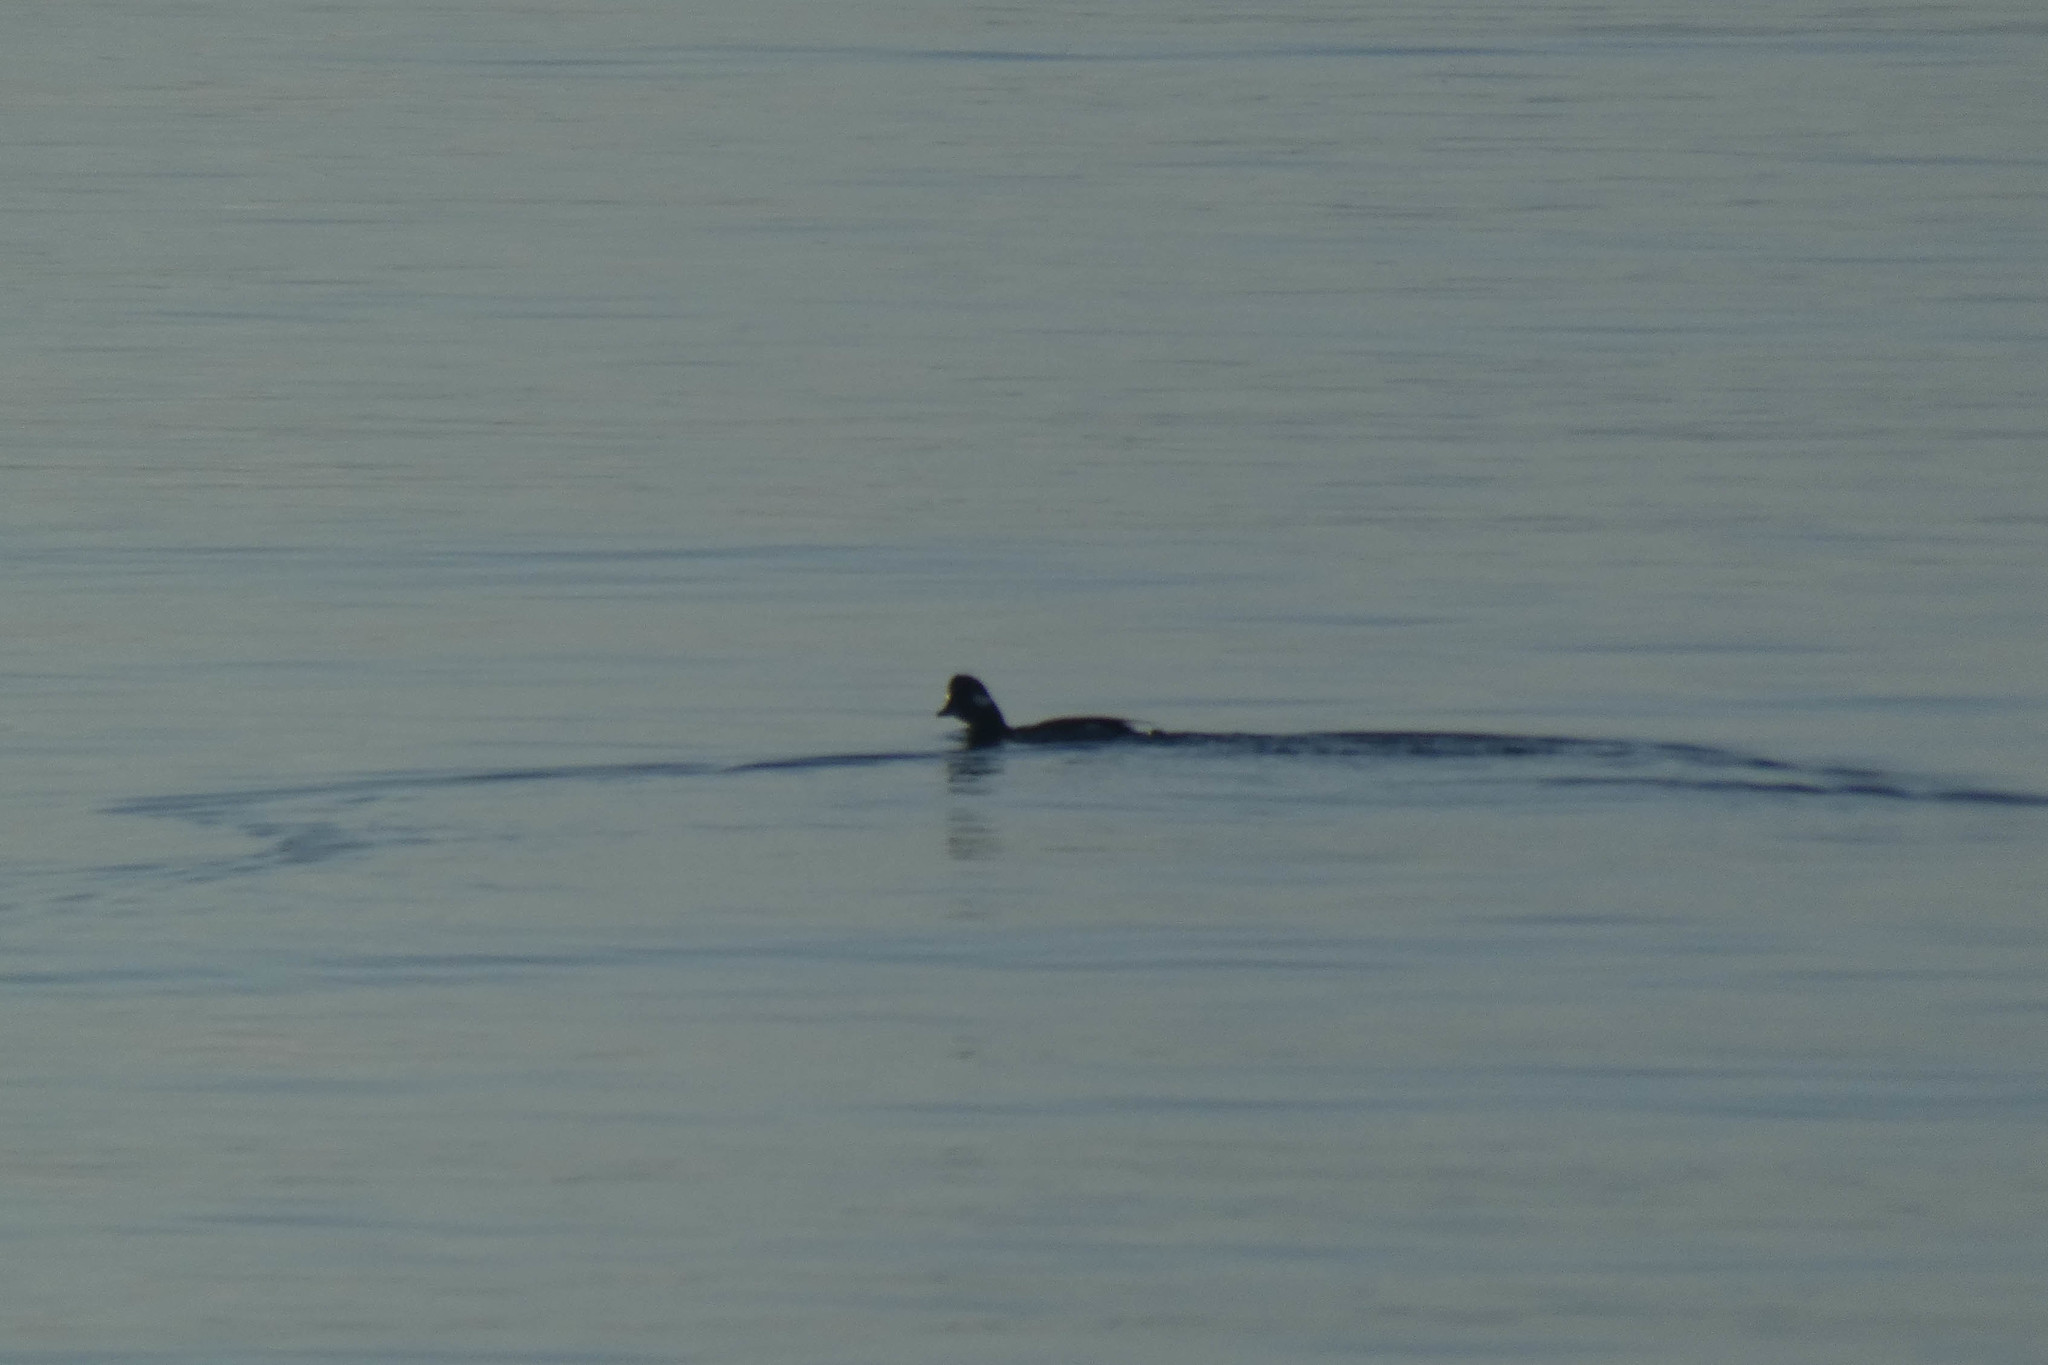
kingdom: Animalia
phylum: Chordata
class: Aves
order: Anseriformes
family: Anatidae
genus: Bucephala
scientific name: Bucephala albeola
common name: Bufflehead
